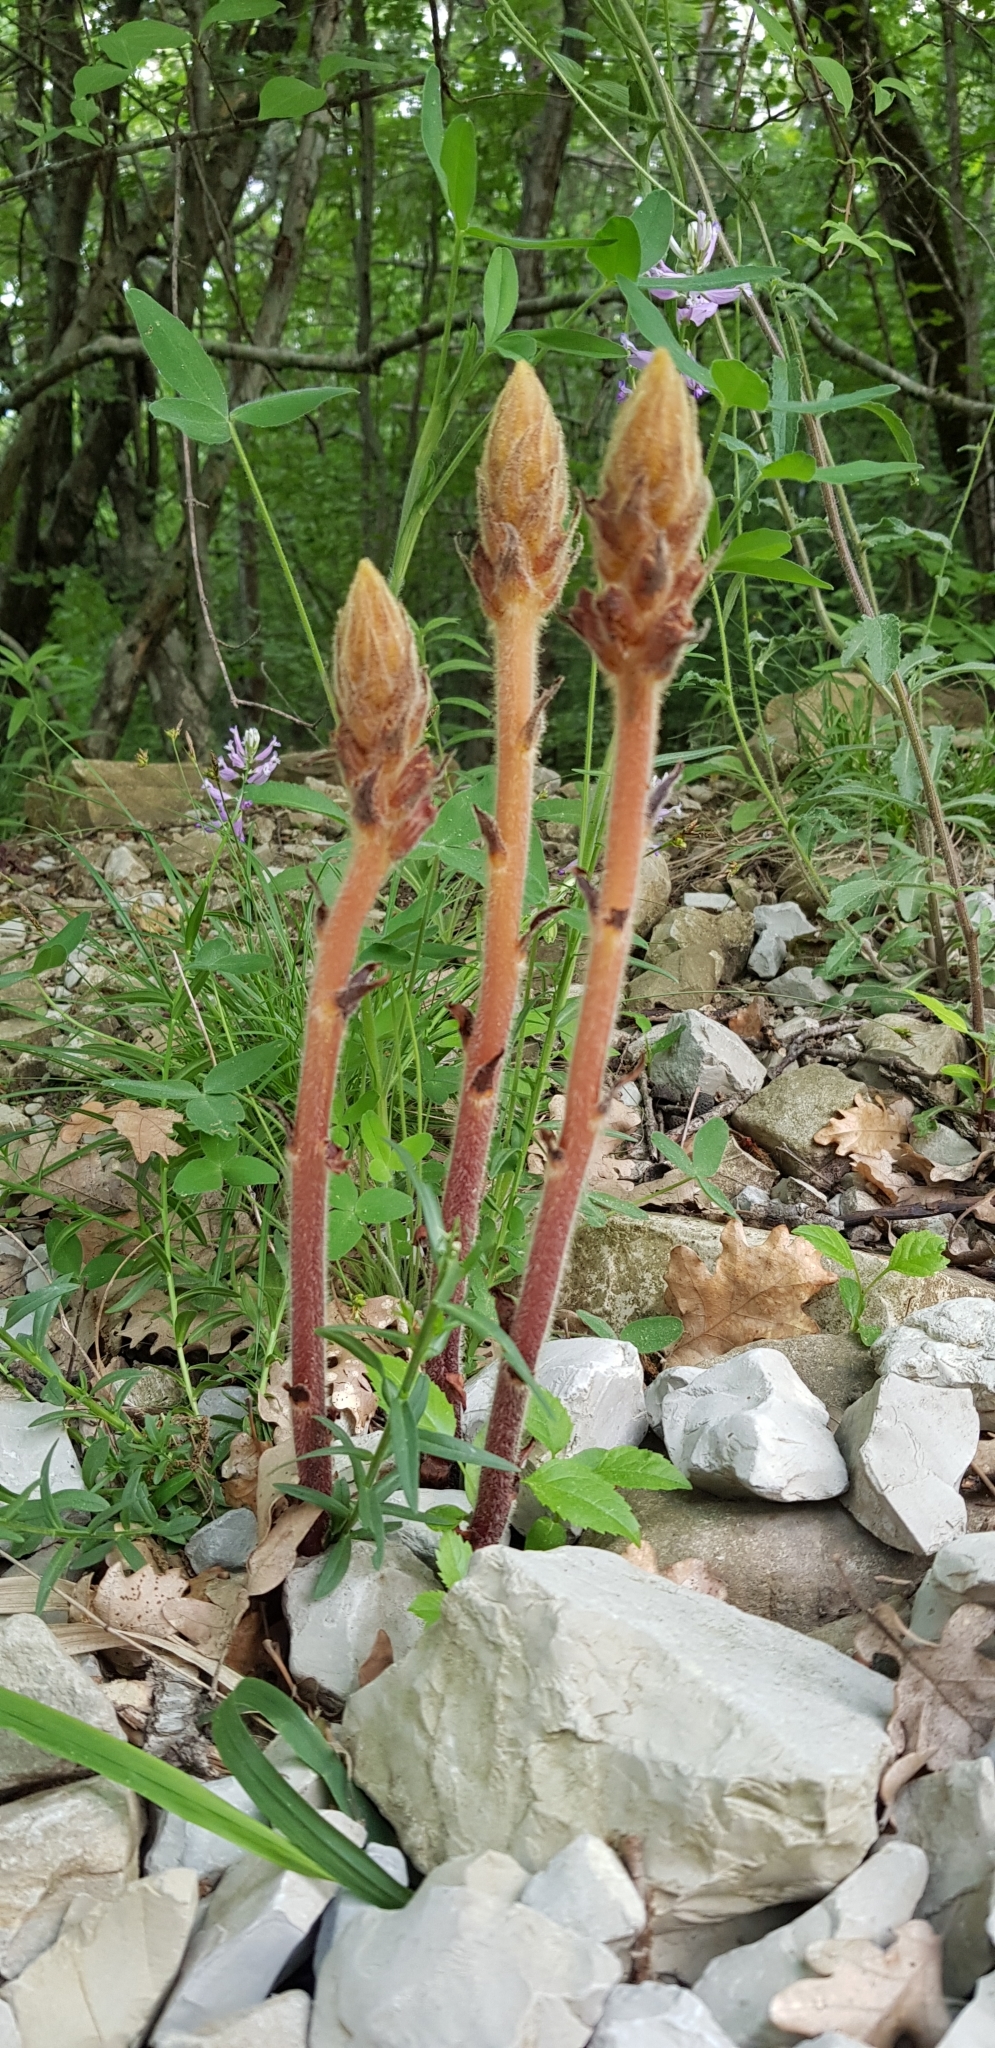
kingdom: Plantae
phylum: Tracheophyta
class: Magnoliopsida
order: Lamiales
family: Orobanchaceae
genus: Orobanche
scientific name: Orobanche
